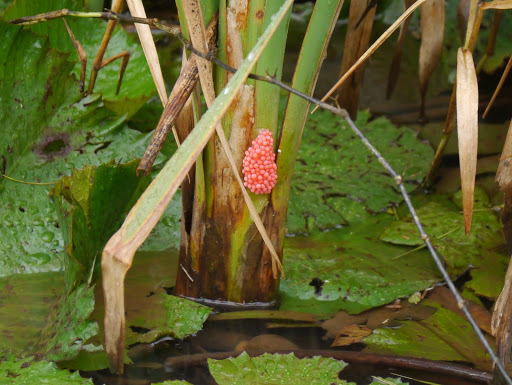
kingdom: Animalia
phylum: Mollusca
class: Gastropoda
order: Architaenioglossa
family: Ampullariidae
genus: Pomacea
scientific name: Pomacea canaliculata
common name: Channeled applesnail
